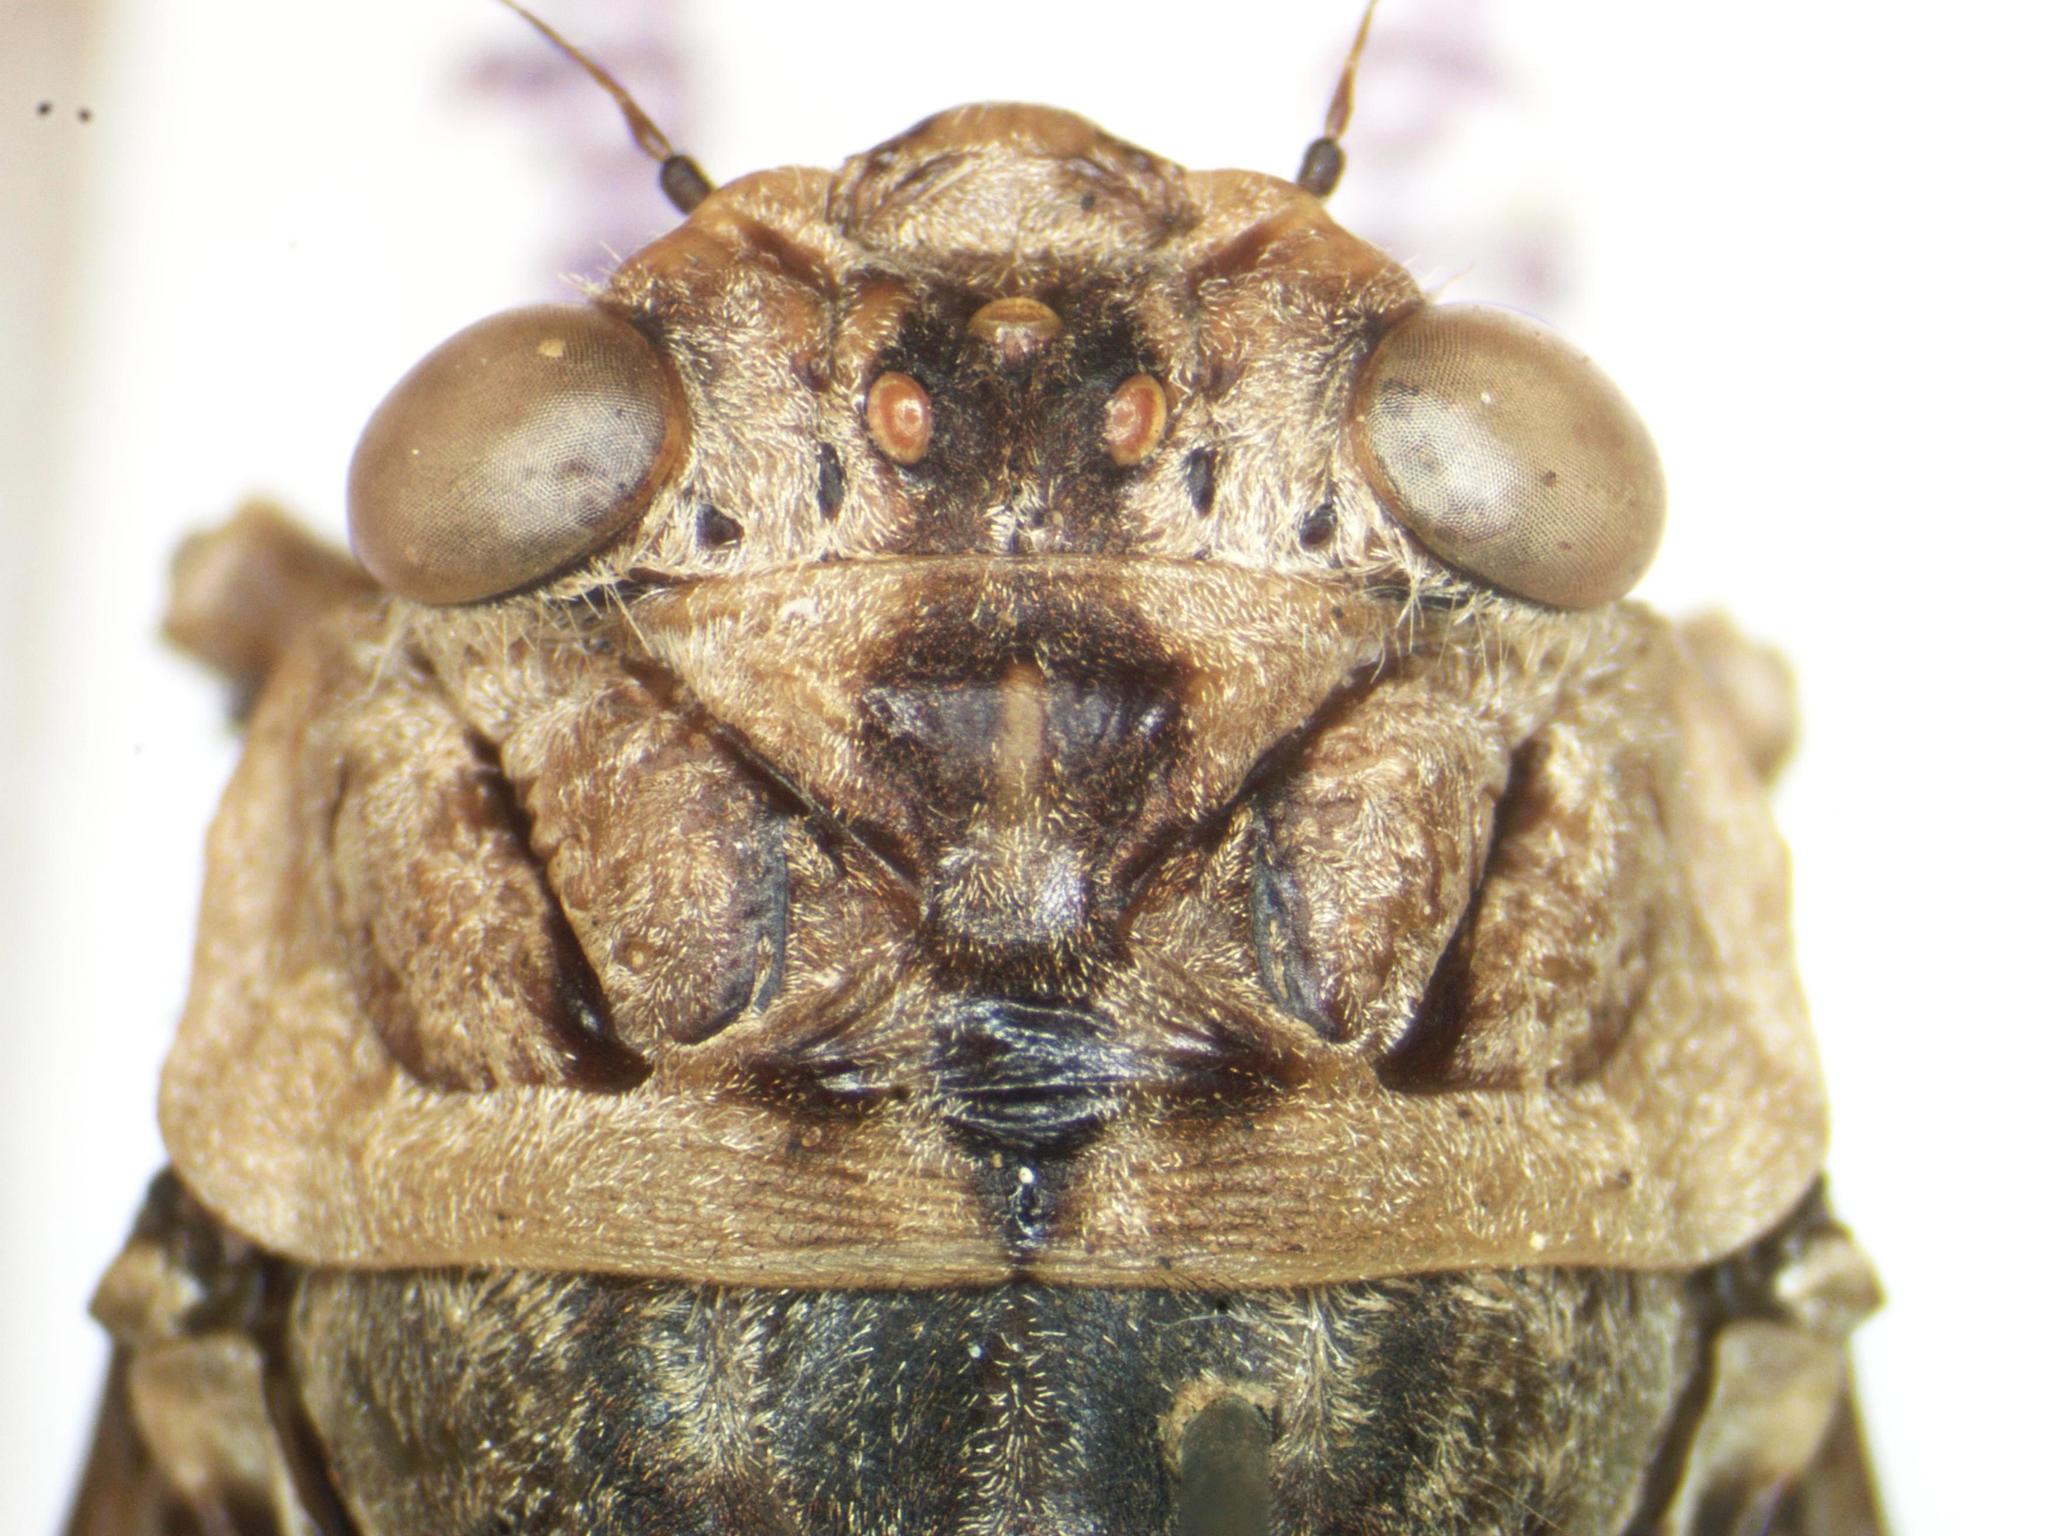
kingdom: Animalia
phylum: Arthropoda
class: Insecta
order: Hemiptera
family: Cicadidae
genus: Proarna
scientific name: Proarna insignis
